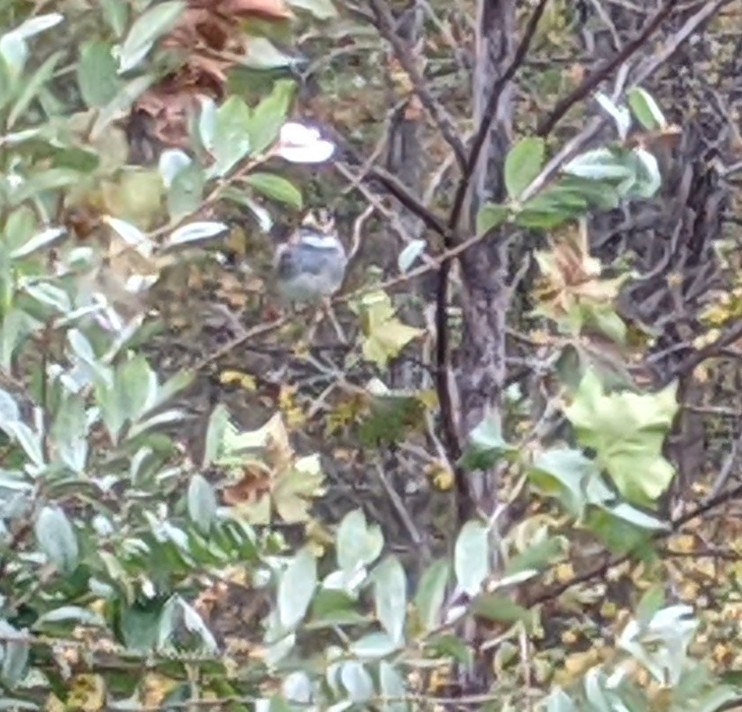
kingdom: Animalia
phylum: Chordata
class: Aves
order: Passeriformes
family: Passerellidae
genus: Zonotrichia
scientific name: Zonotrichia albicollis
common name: White-throated sparrow
